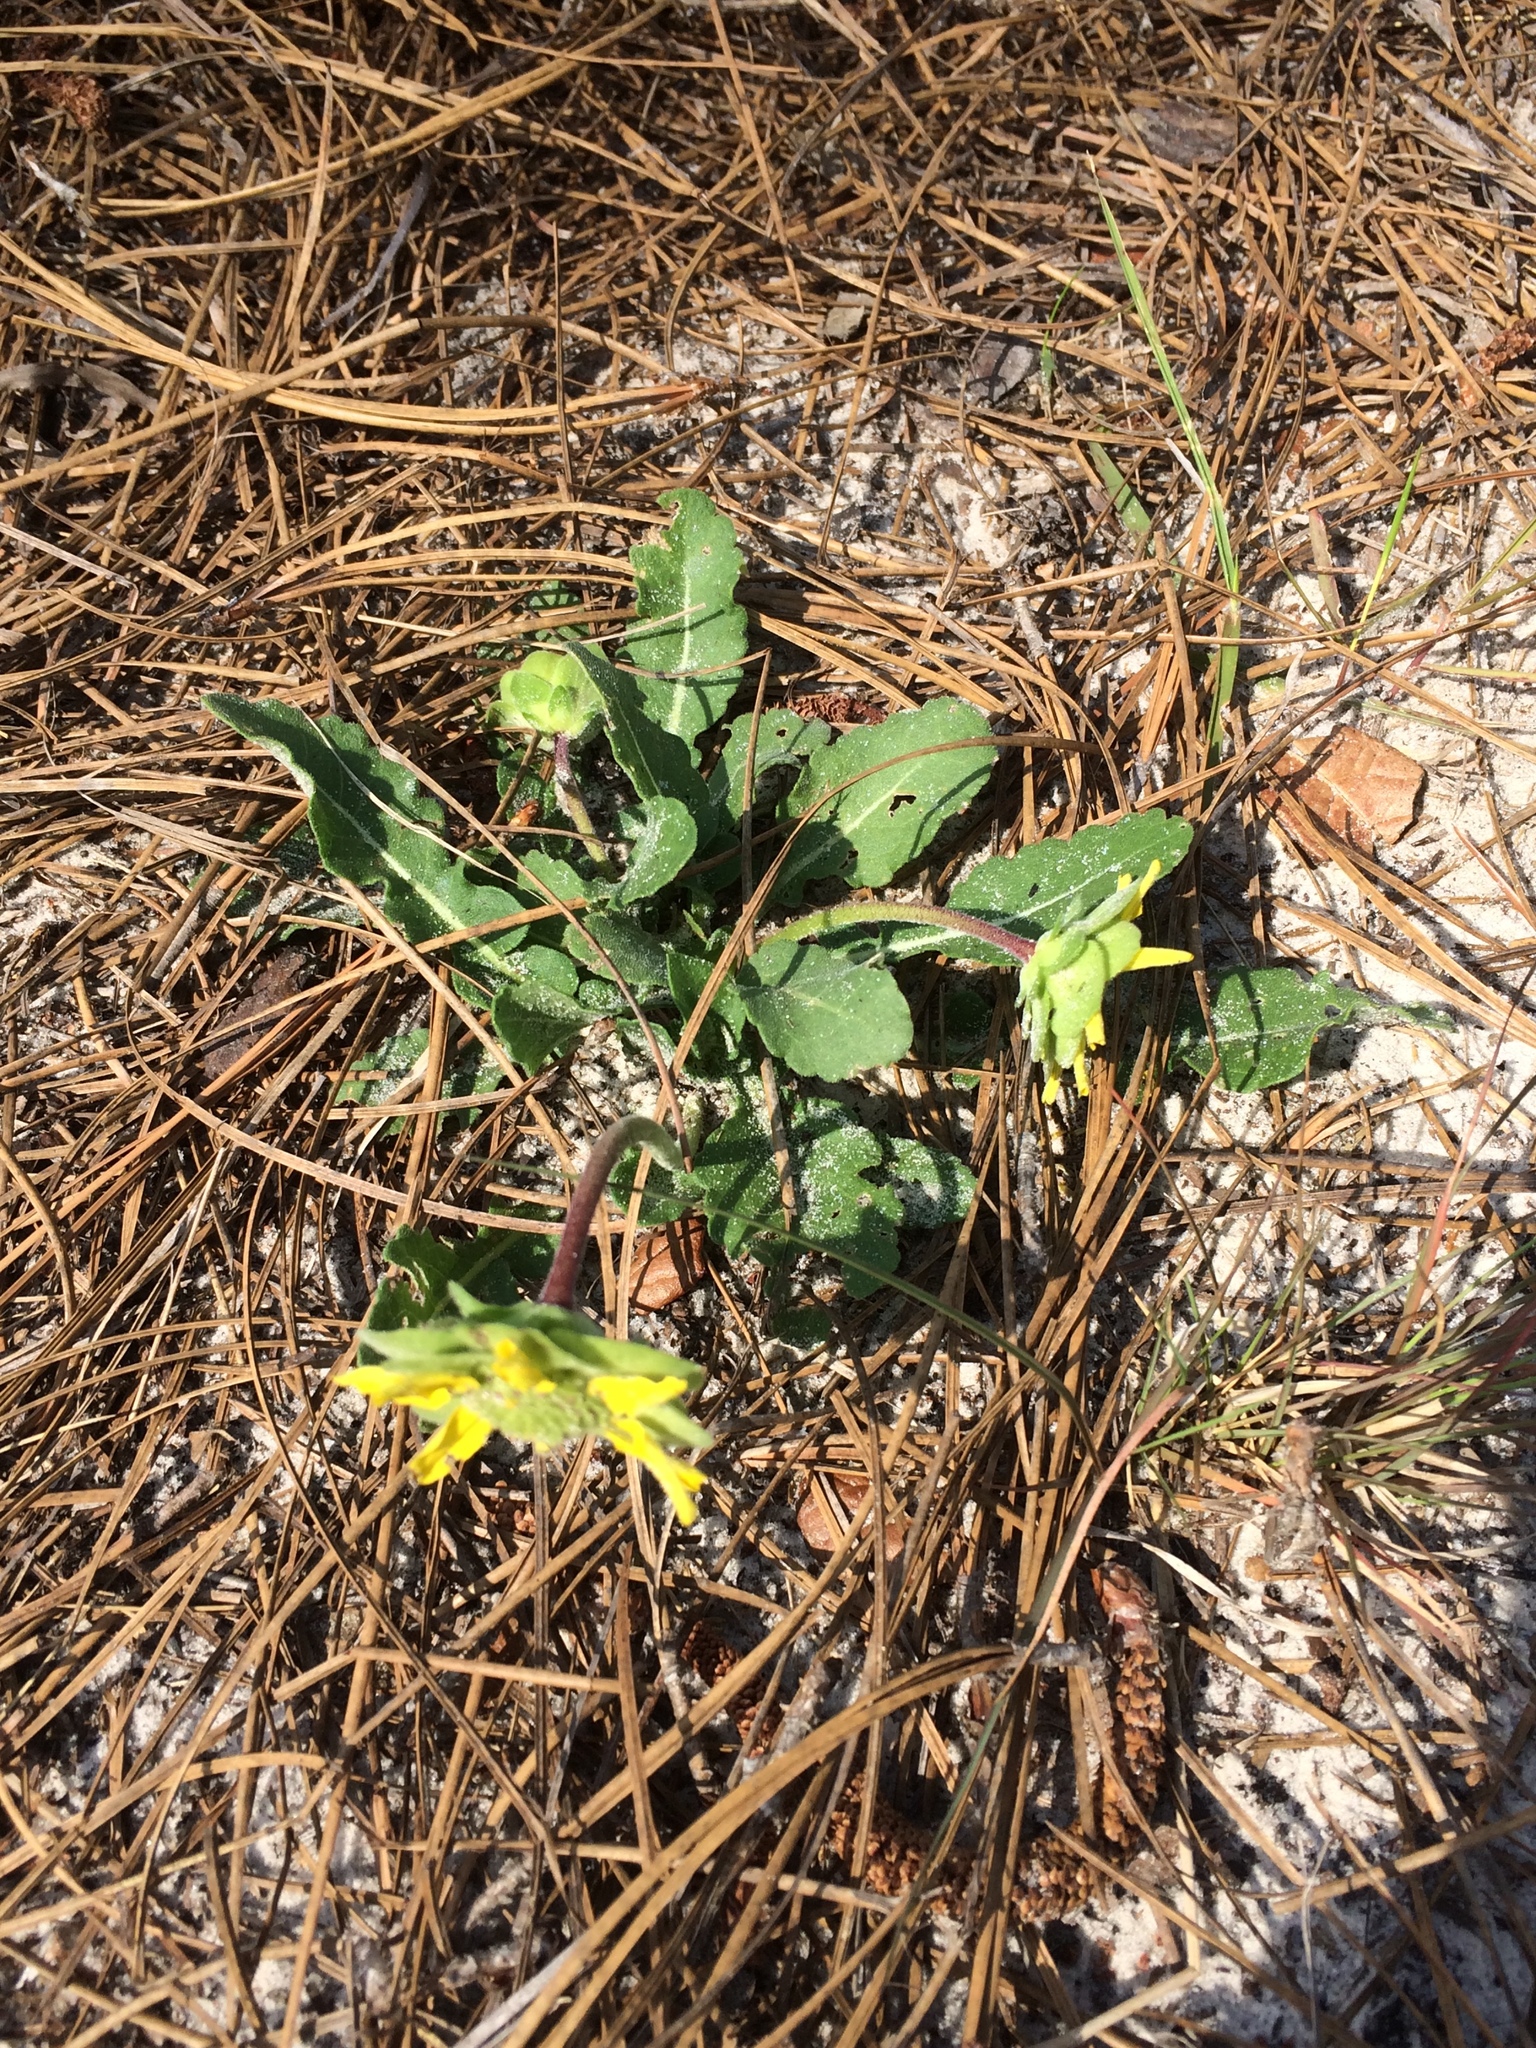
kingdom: Plantae
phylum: Tracheophyta
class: Magnoliopsida
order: Asterales
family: Asteraceae
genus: Berlandiera
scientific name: Berlandiera subacaulis
